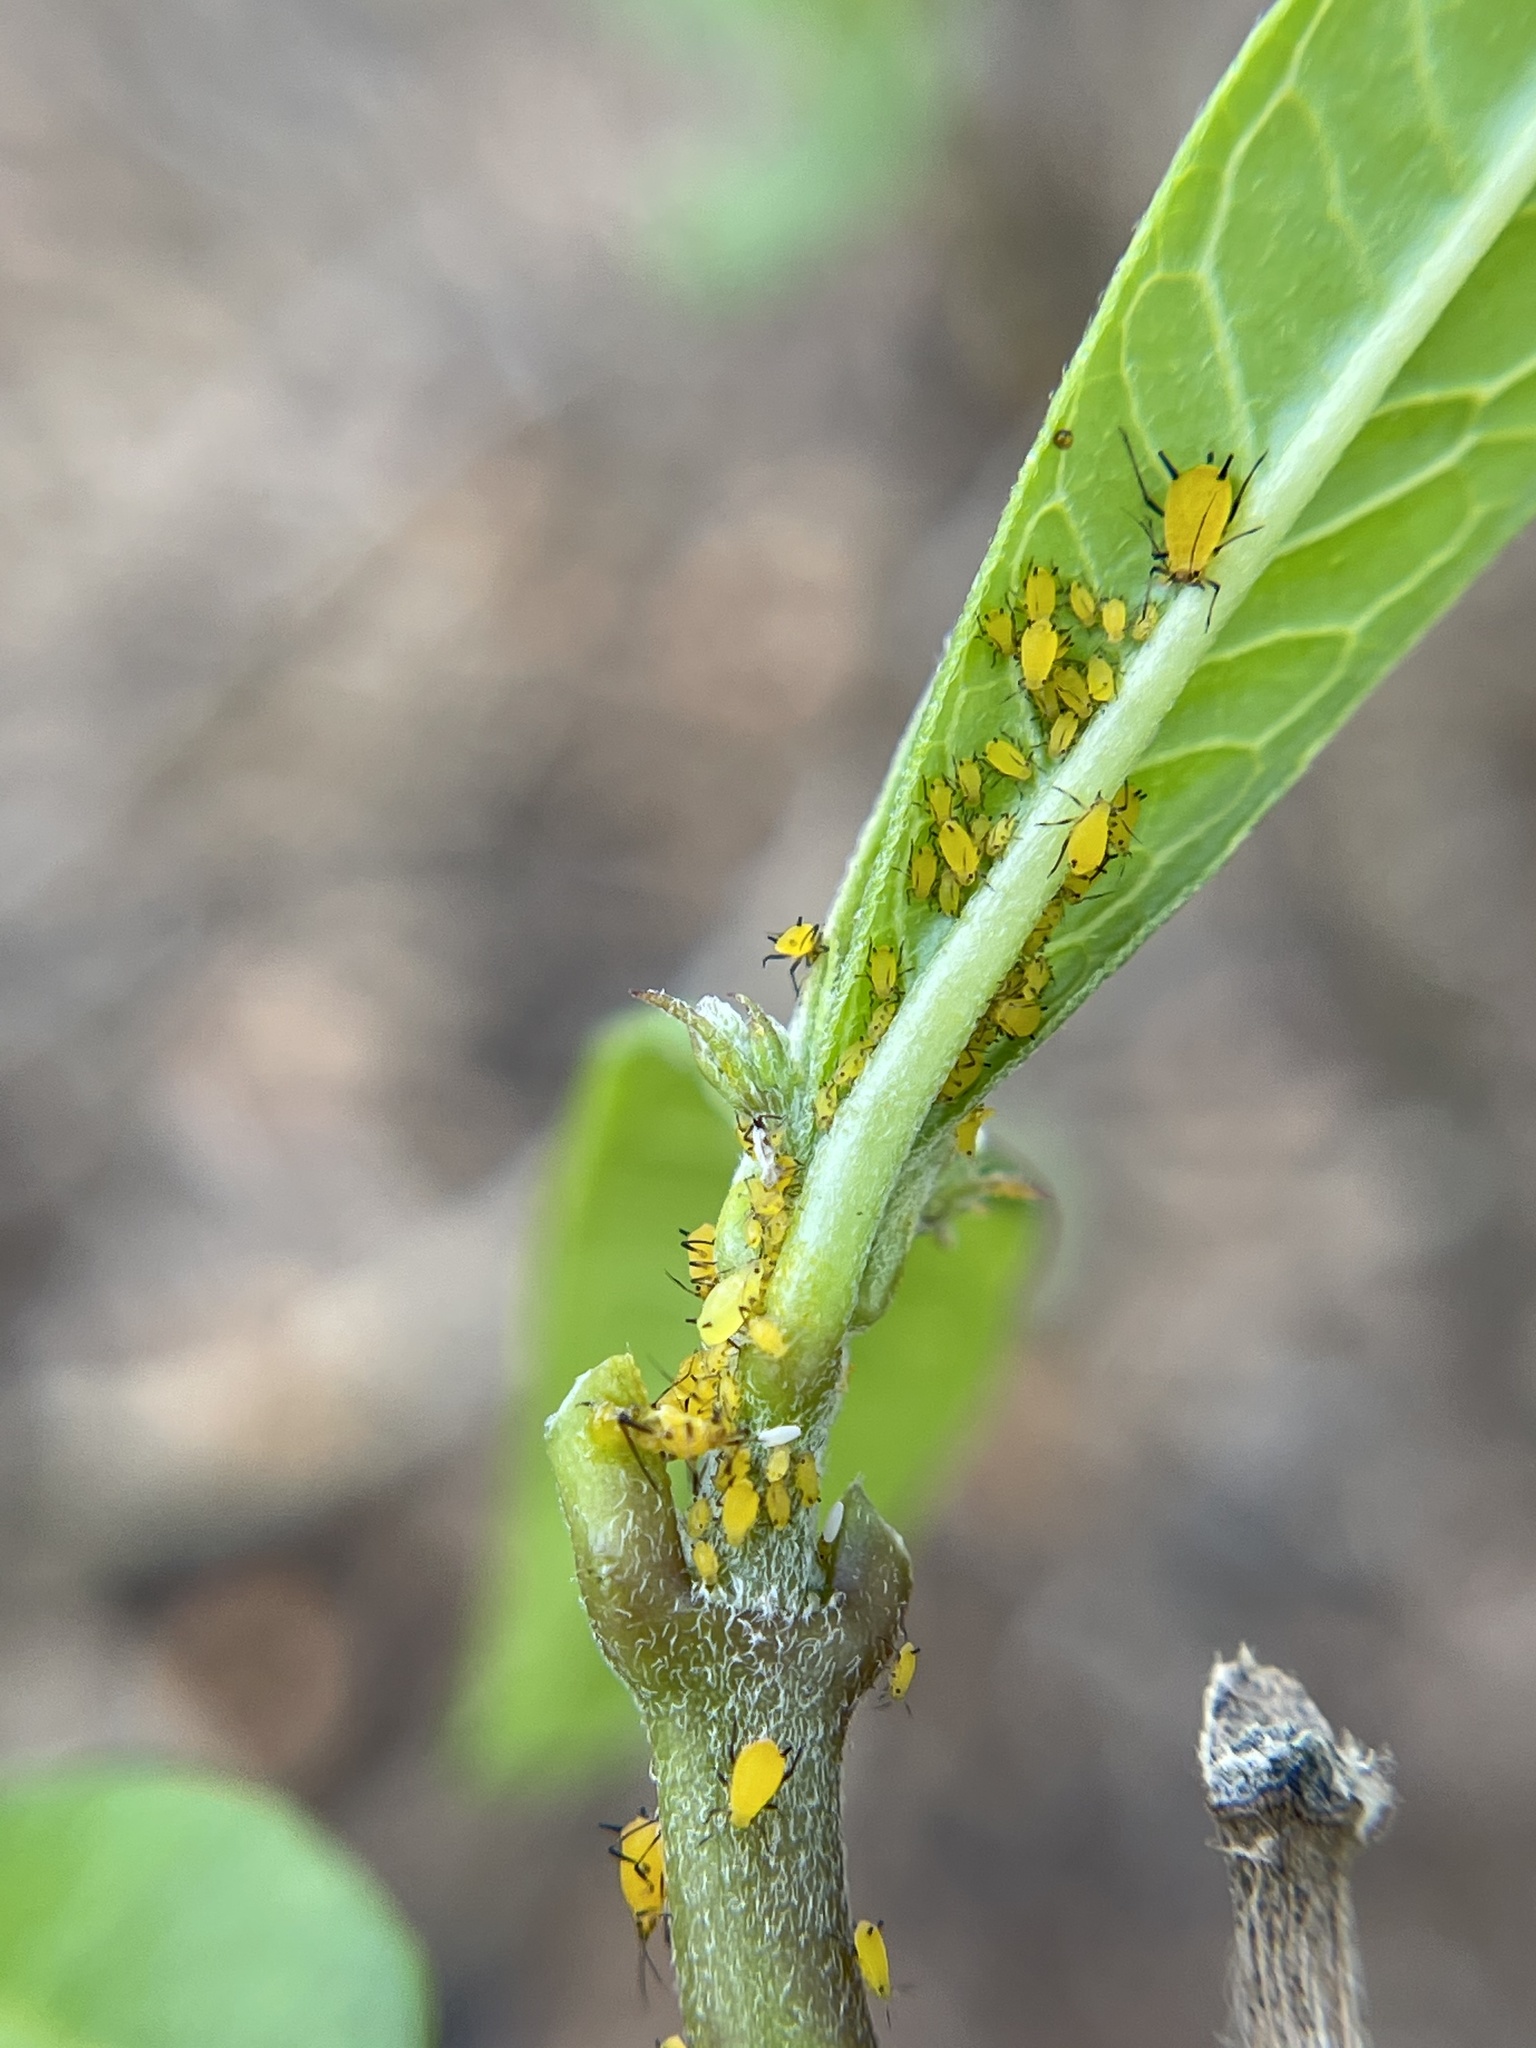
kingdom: Animalia
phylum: Arthropoda
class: Insecta
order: Hemiptera
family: Aphididae
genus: Aphis
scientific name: Aphis nerii
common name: Oleander aphid
